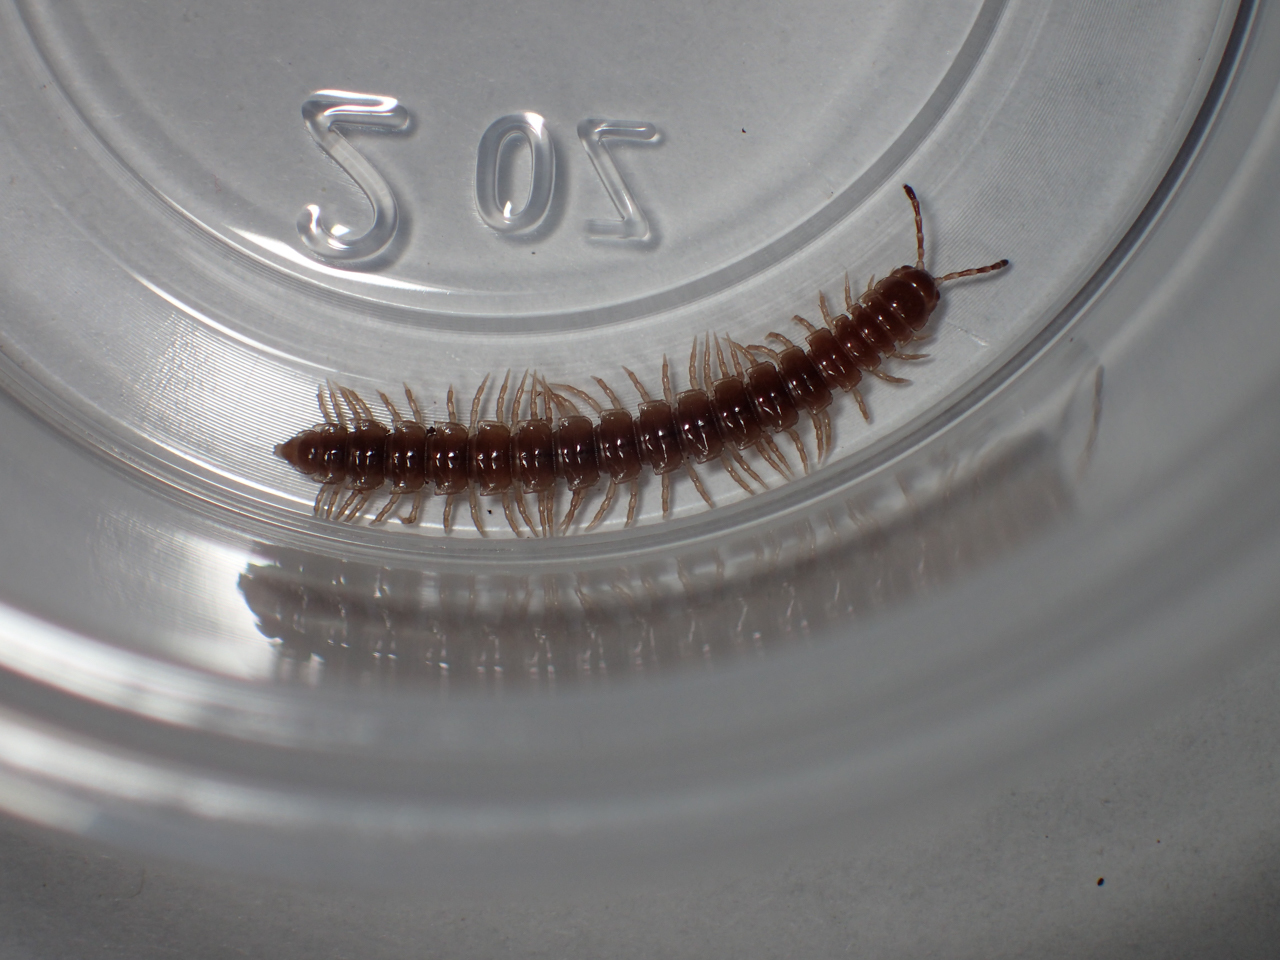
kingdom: Animalia
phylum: Arthropoda
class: Diplopoda
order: Polydesmida
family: Paradoxosomatidae
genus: Oxidus
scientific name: Oxidus gracilis
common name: Greenhouse millipede
